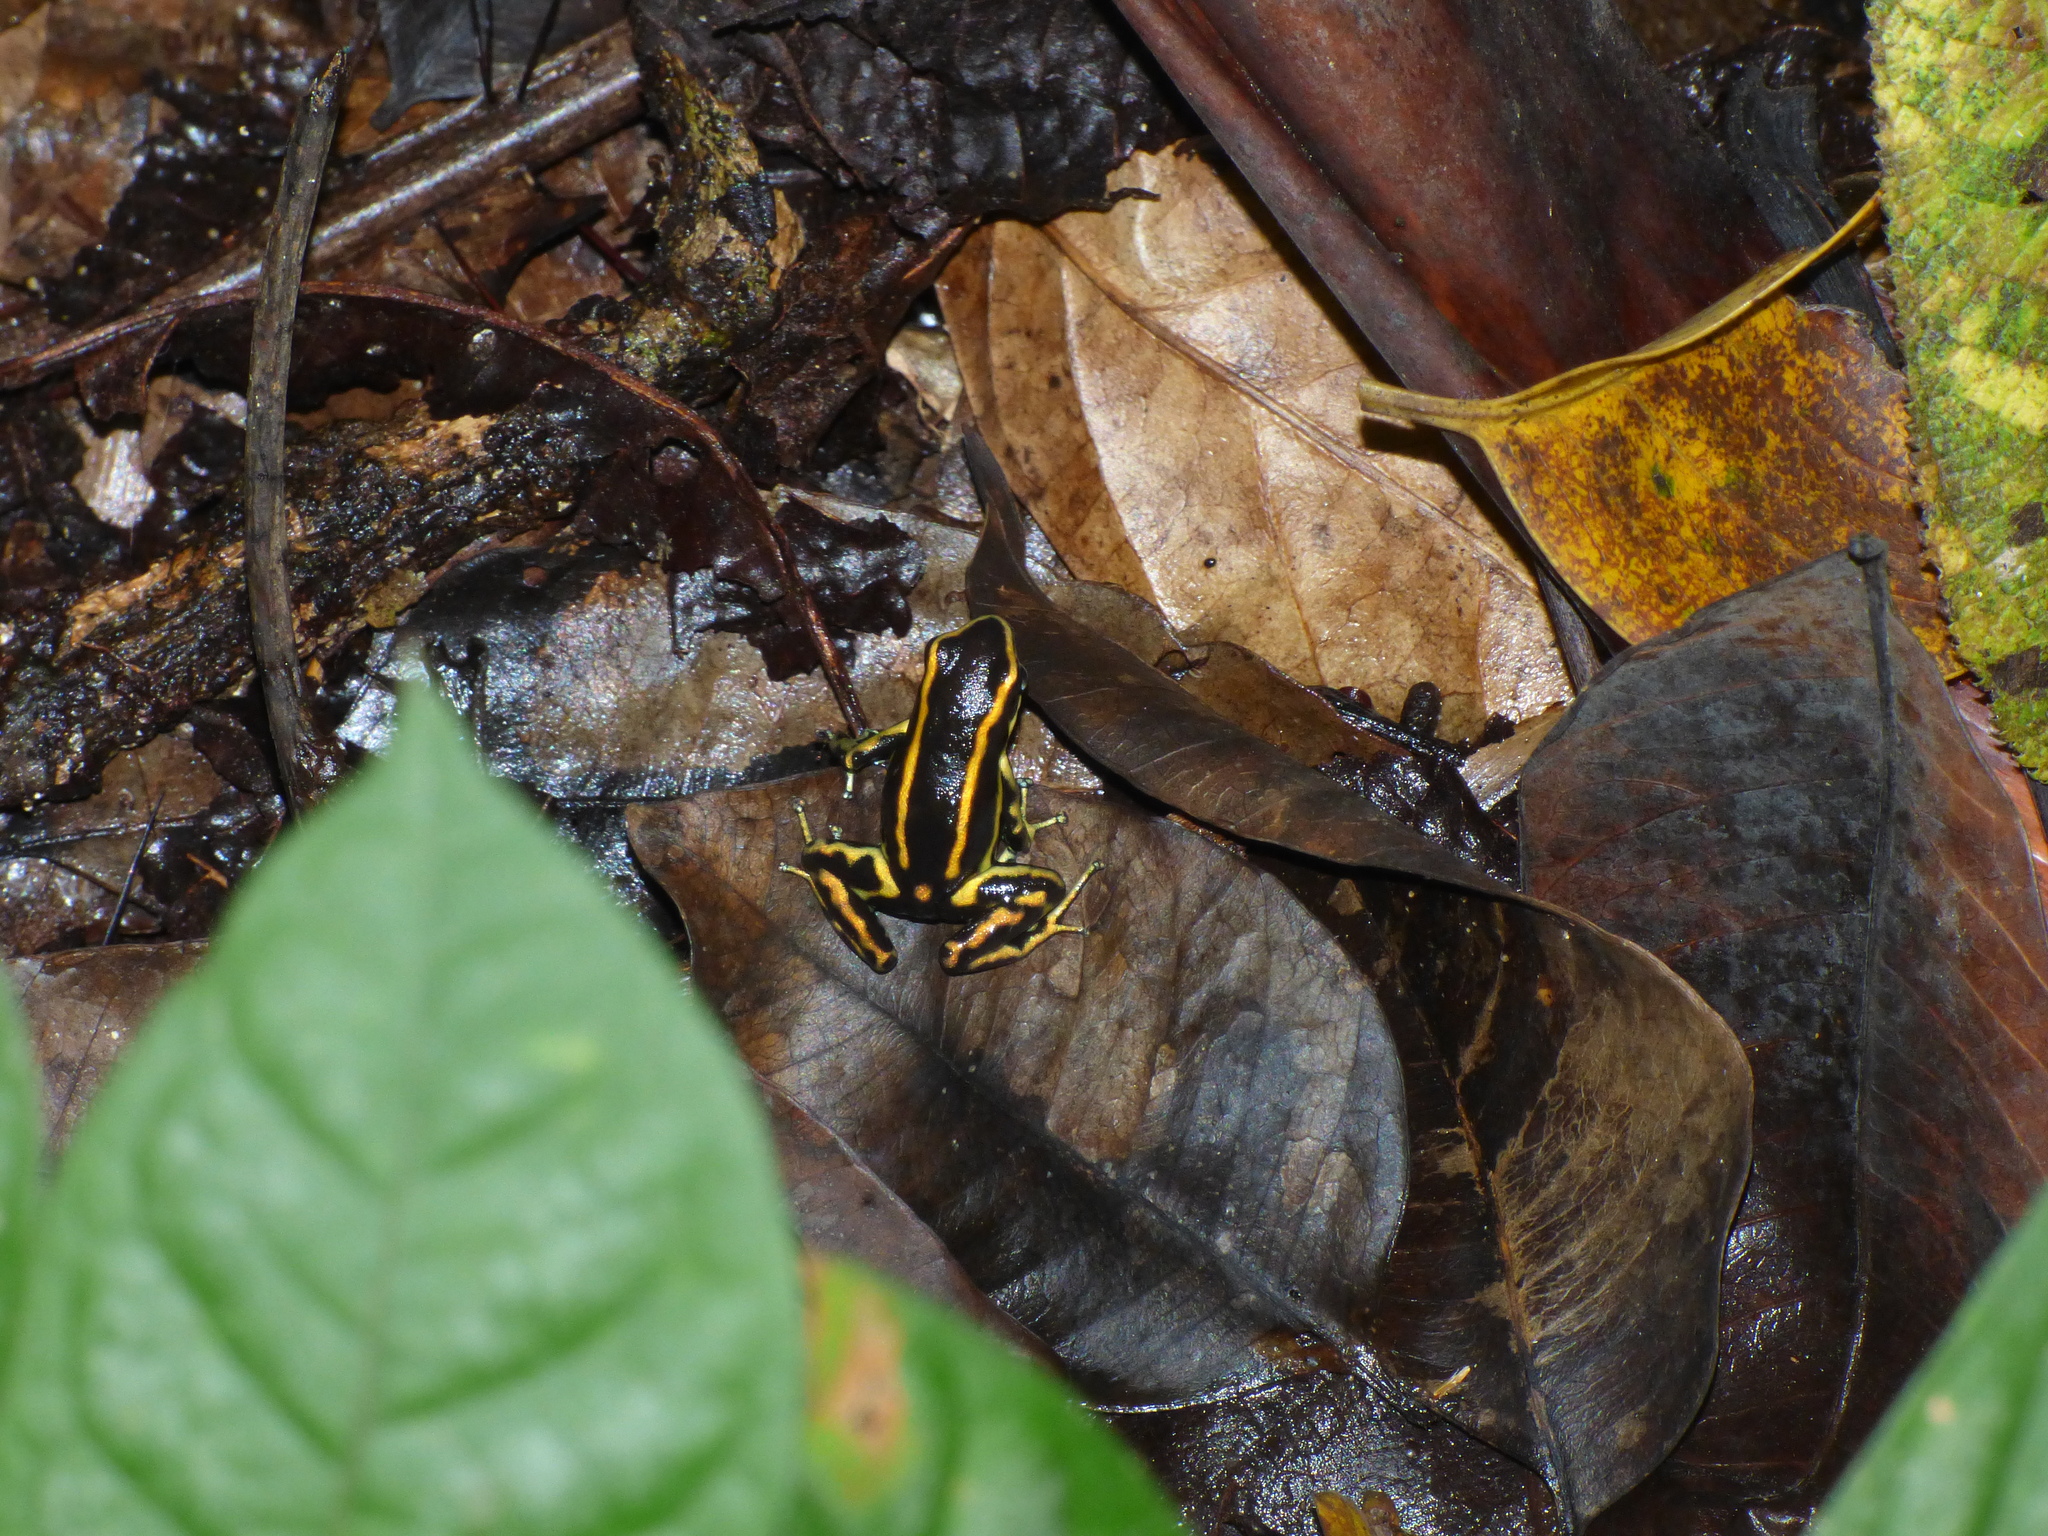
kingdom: Animalia
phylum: Chordata
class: Amphibia
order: Anura
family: Dendrobatidae
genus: Dendrobates
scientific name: Dendrobates truncatus
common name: Yellow-striped poison frog
